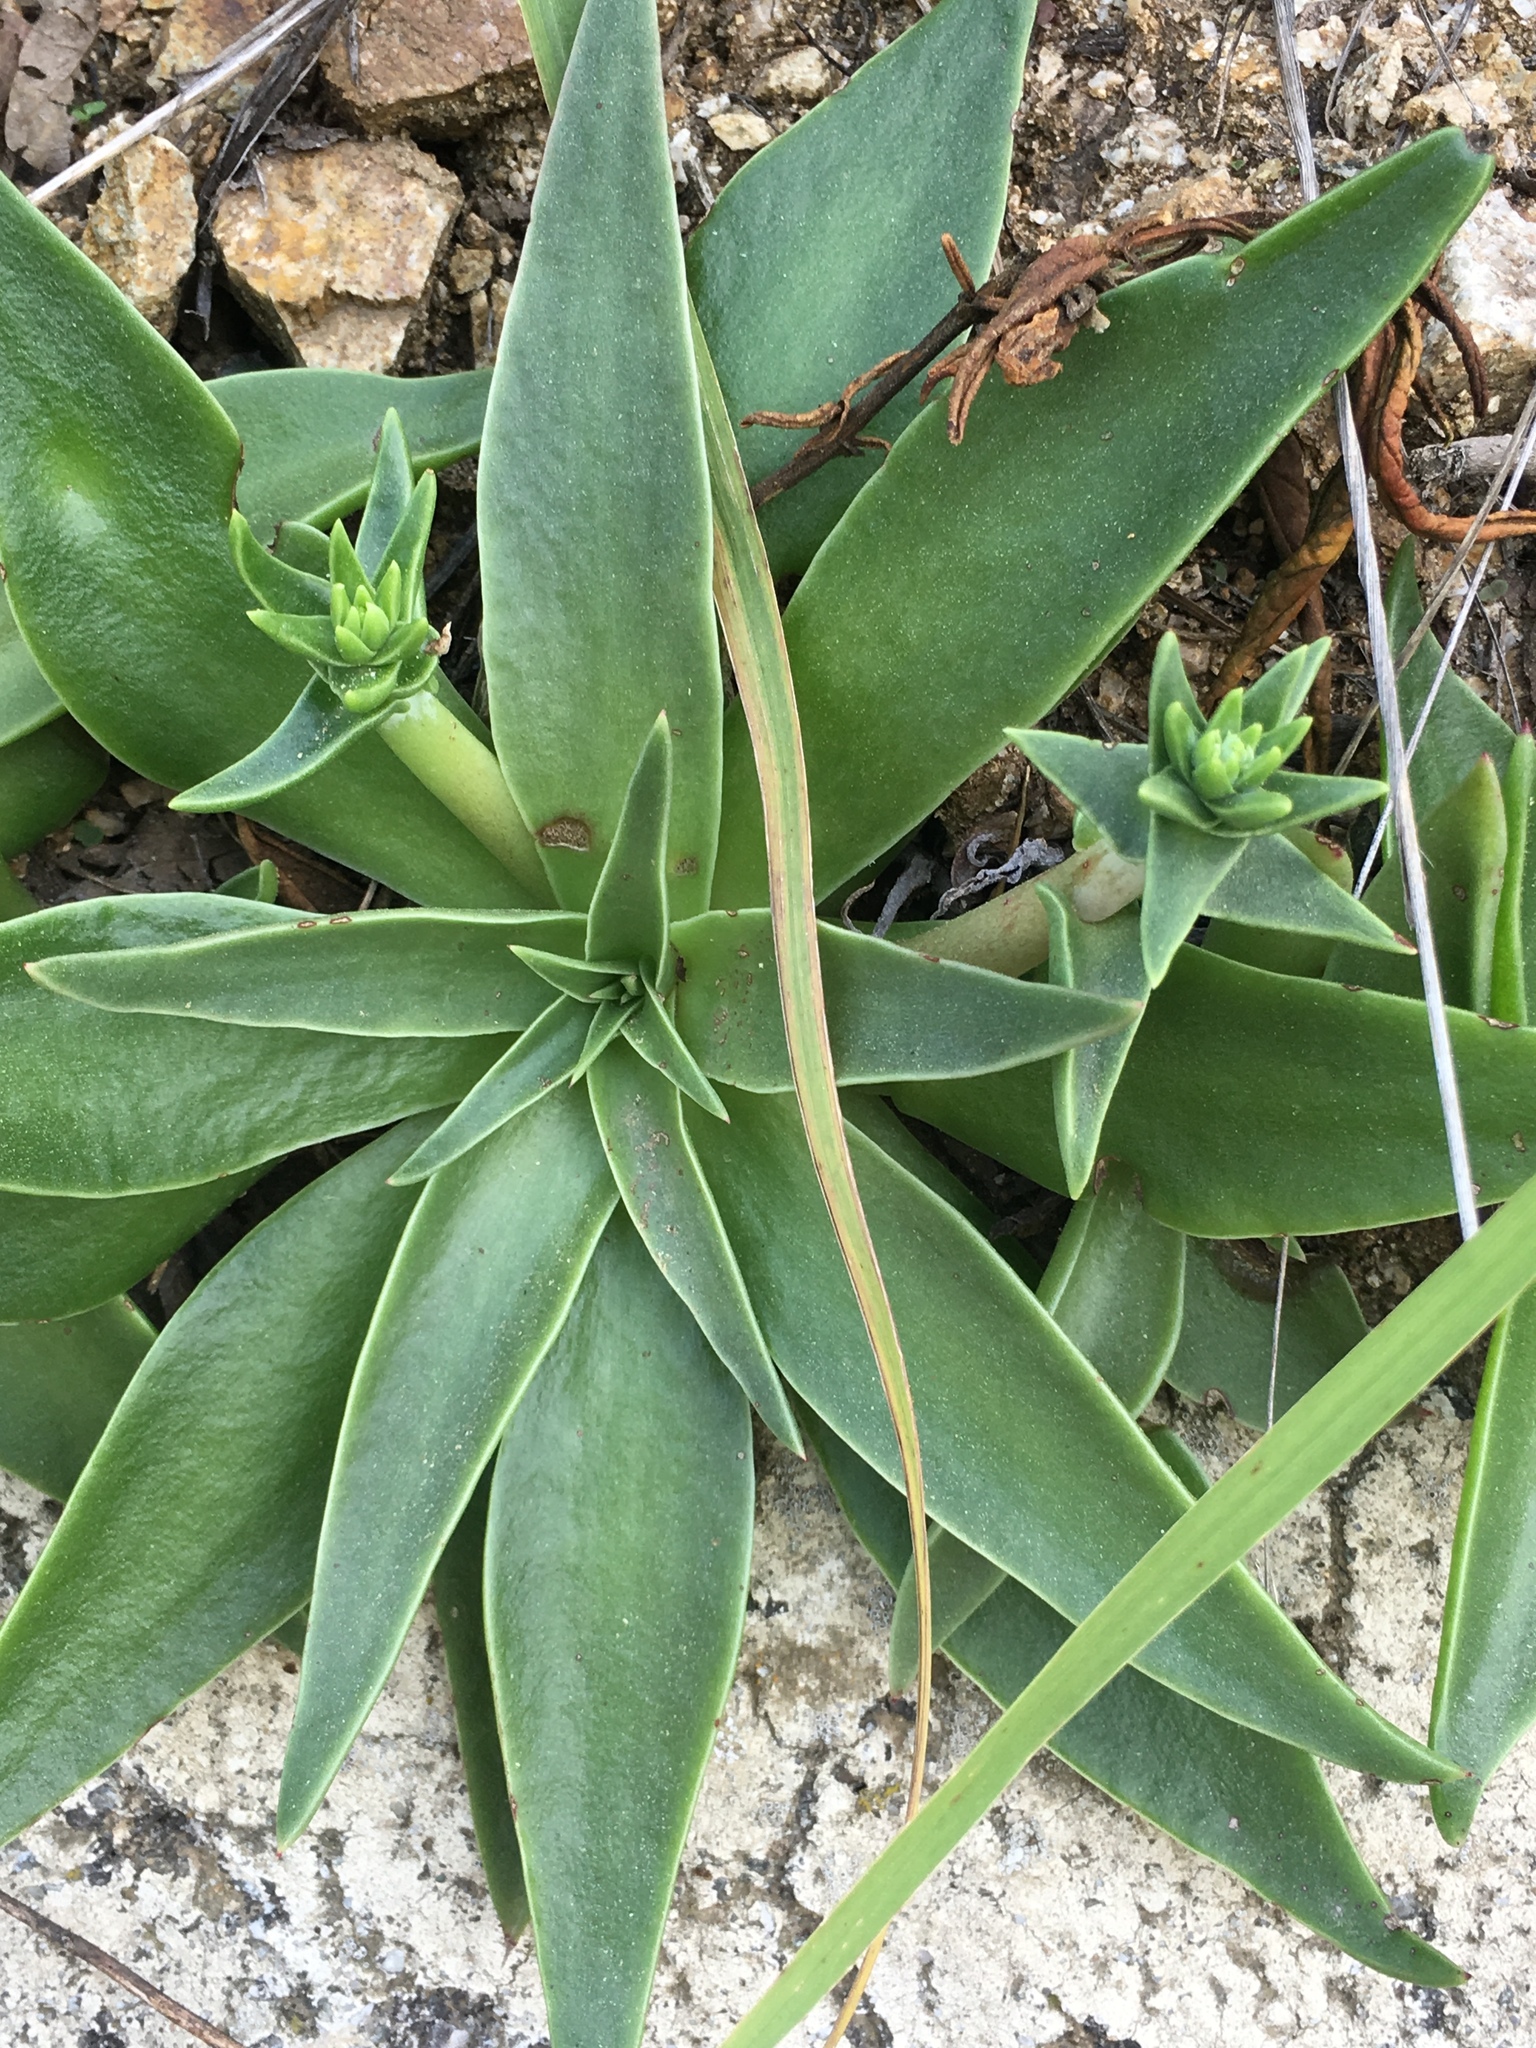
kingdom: Plantae
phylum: Tracheophyta
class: Magnoliopsida
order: Saxifragales
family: Crassulaceae
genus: Dudleya
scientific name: Dudleya lanceolata
